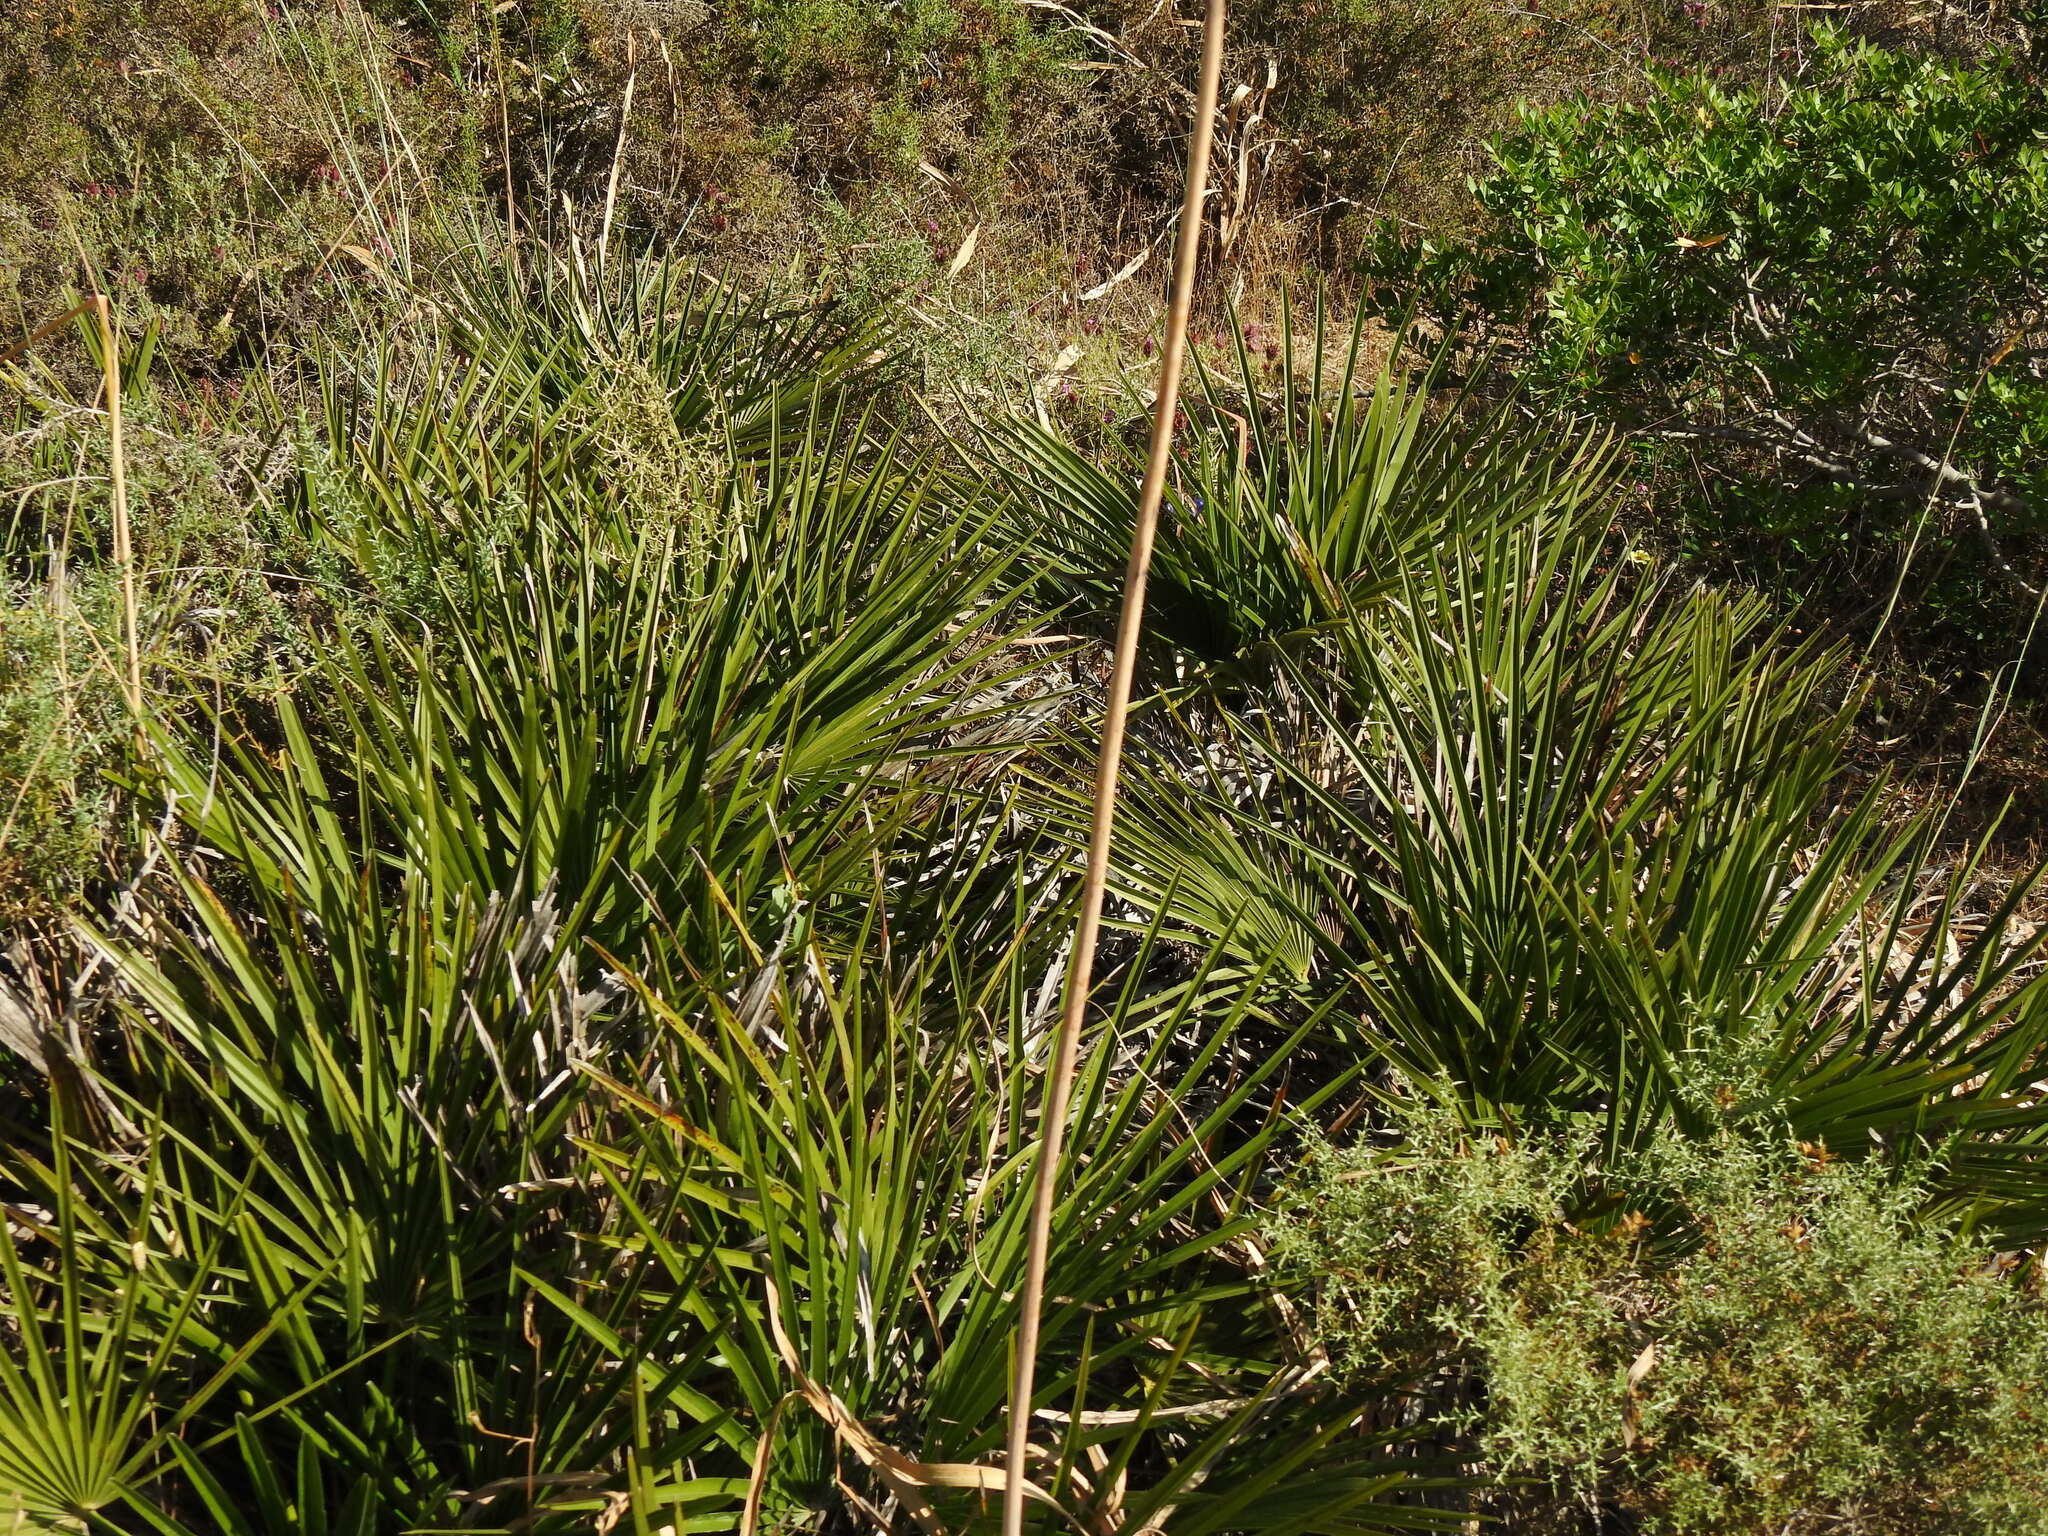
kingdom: Plantae
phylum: Tracheophyta
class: Liliopsida
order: Arecales
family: Arecaceae
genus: Chamaerops
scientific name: Chamaerops humilis
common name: Dwarf fan palm
